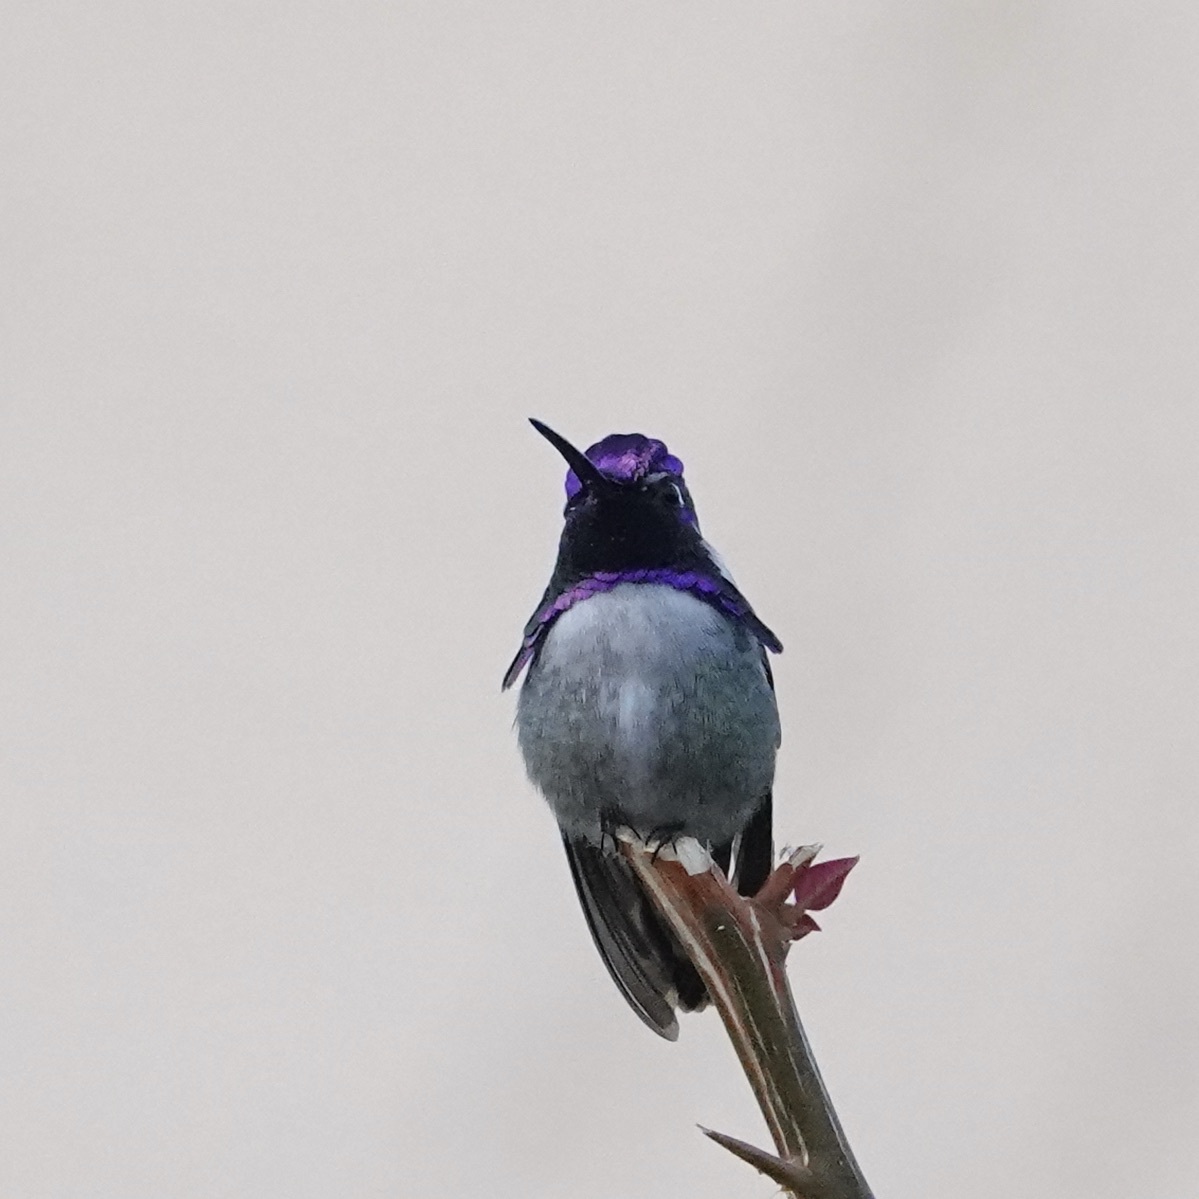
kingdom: Animalia
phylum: Chordata
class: Aves
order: Apodiformes
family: Trochilidae
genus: Calypte
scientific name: Calypte costae
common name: Costa's hummingbird
